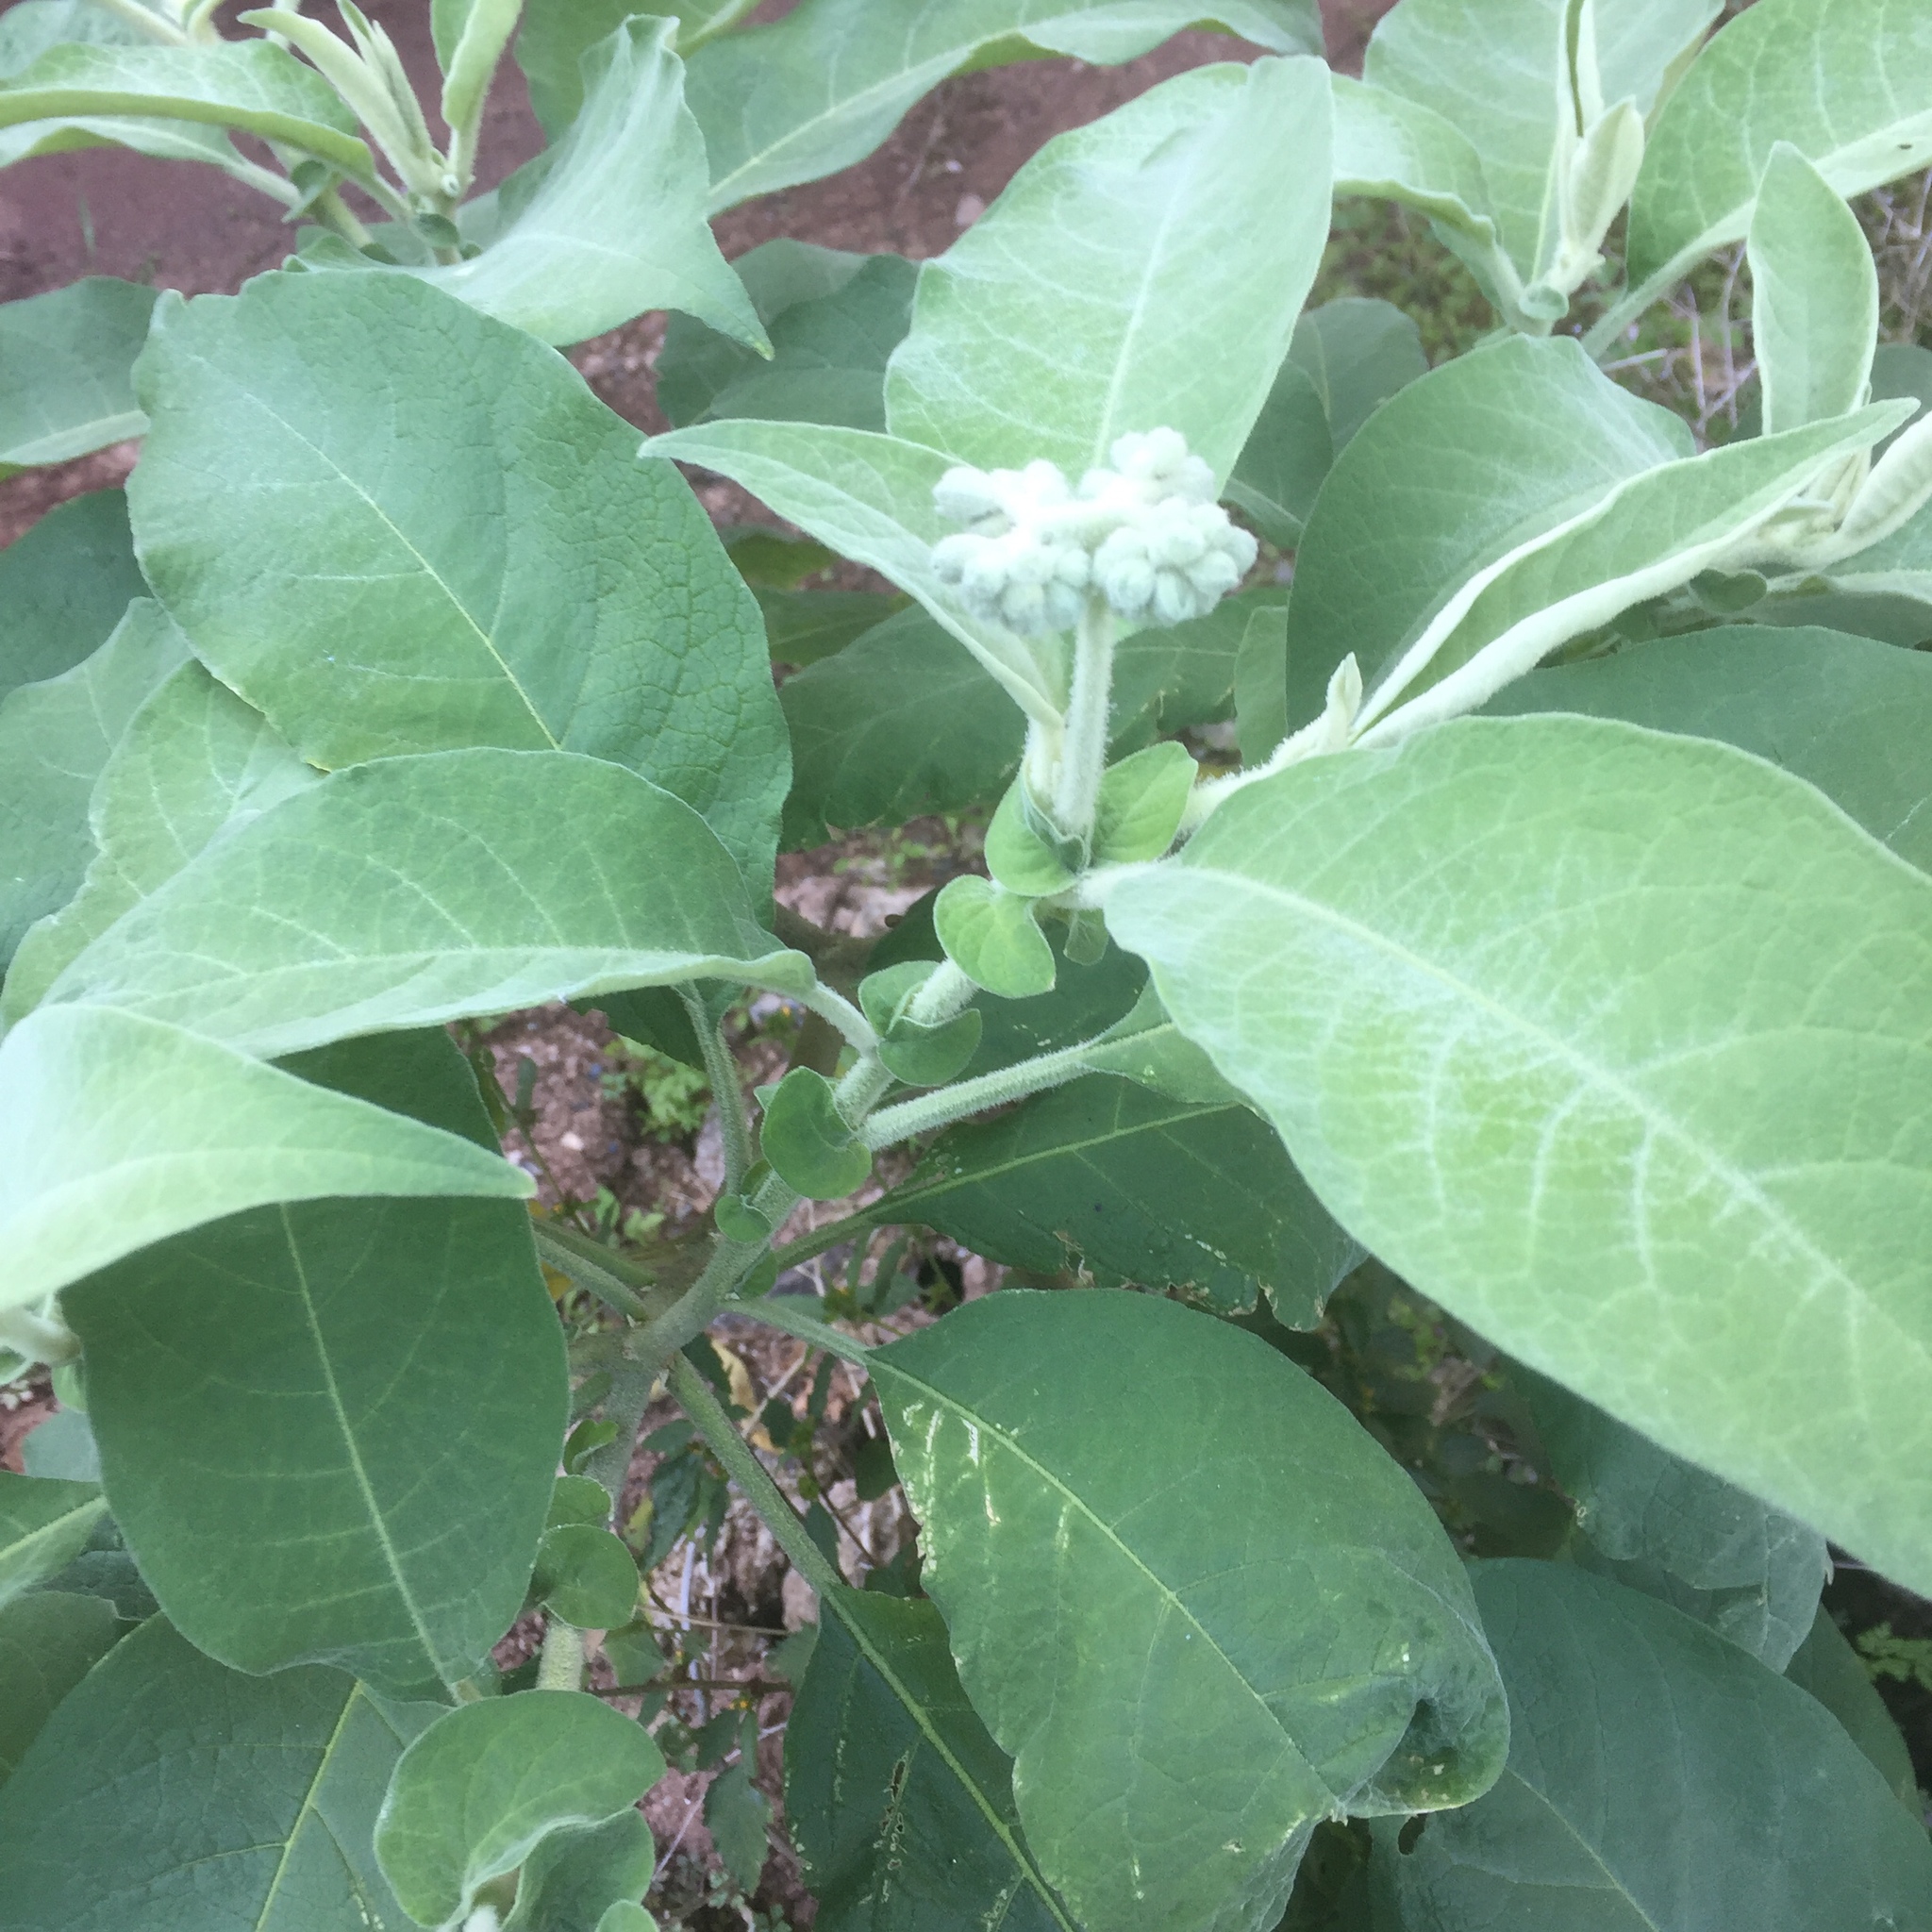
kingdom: Plantae
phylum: Tracheophyta
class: Magnoliopsida
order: Solanales
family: Solanaceae
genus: Solanum
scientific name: Solanum mauritianum
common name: Earleaf nightshade
